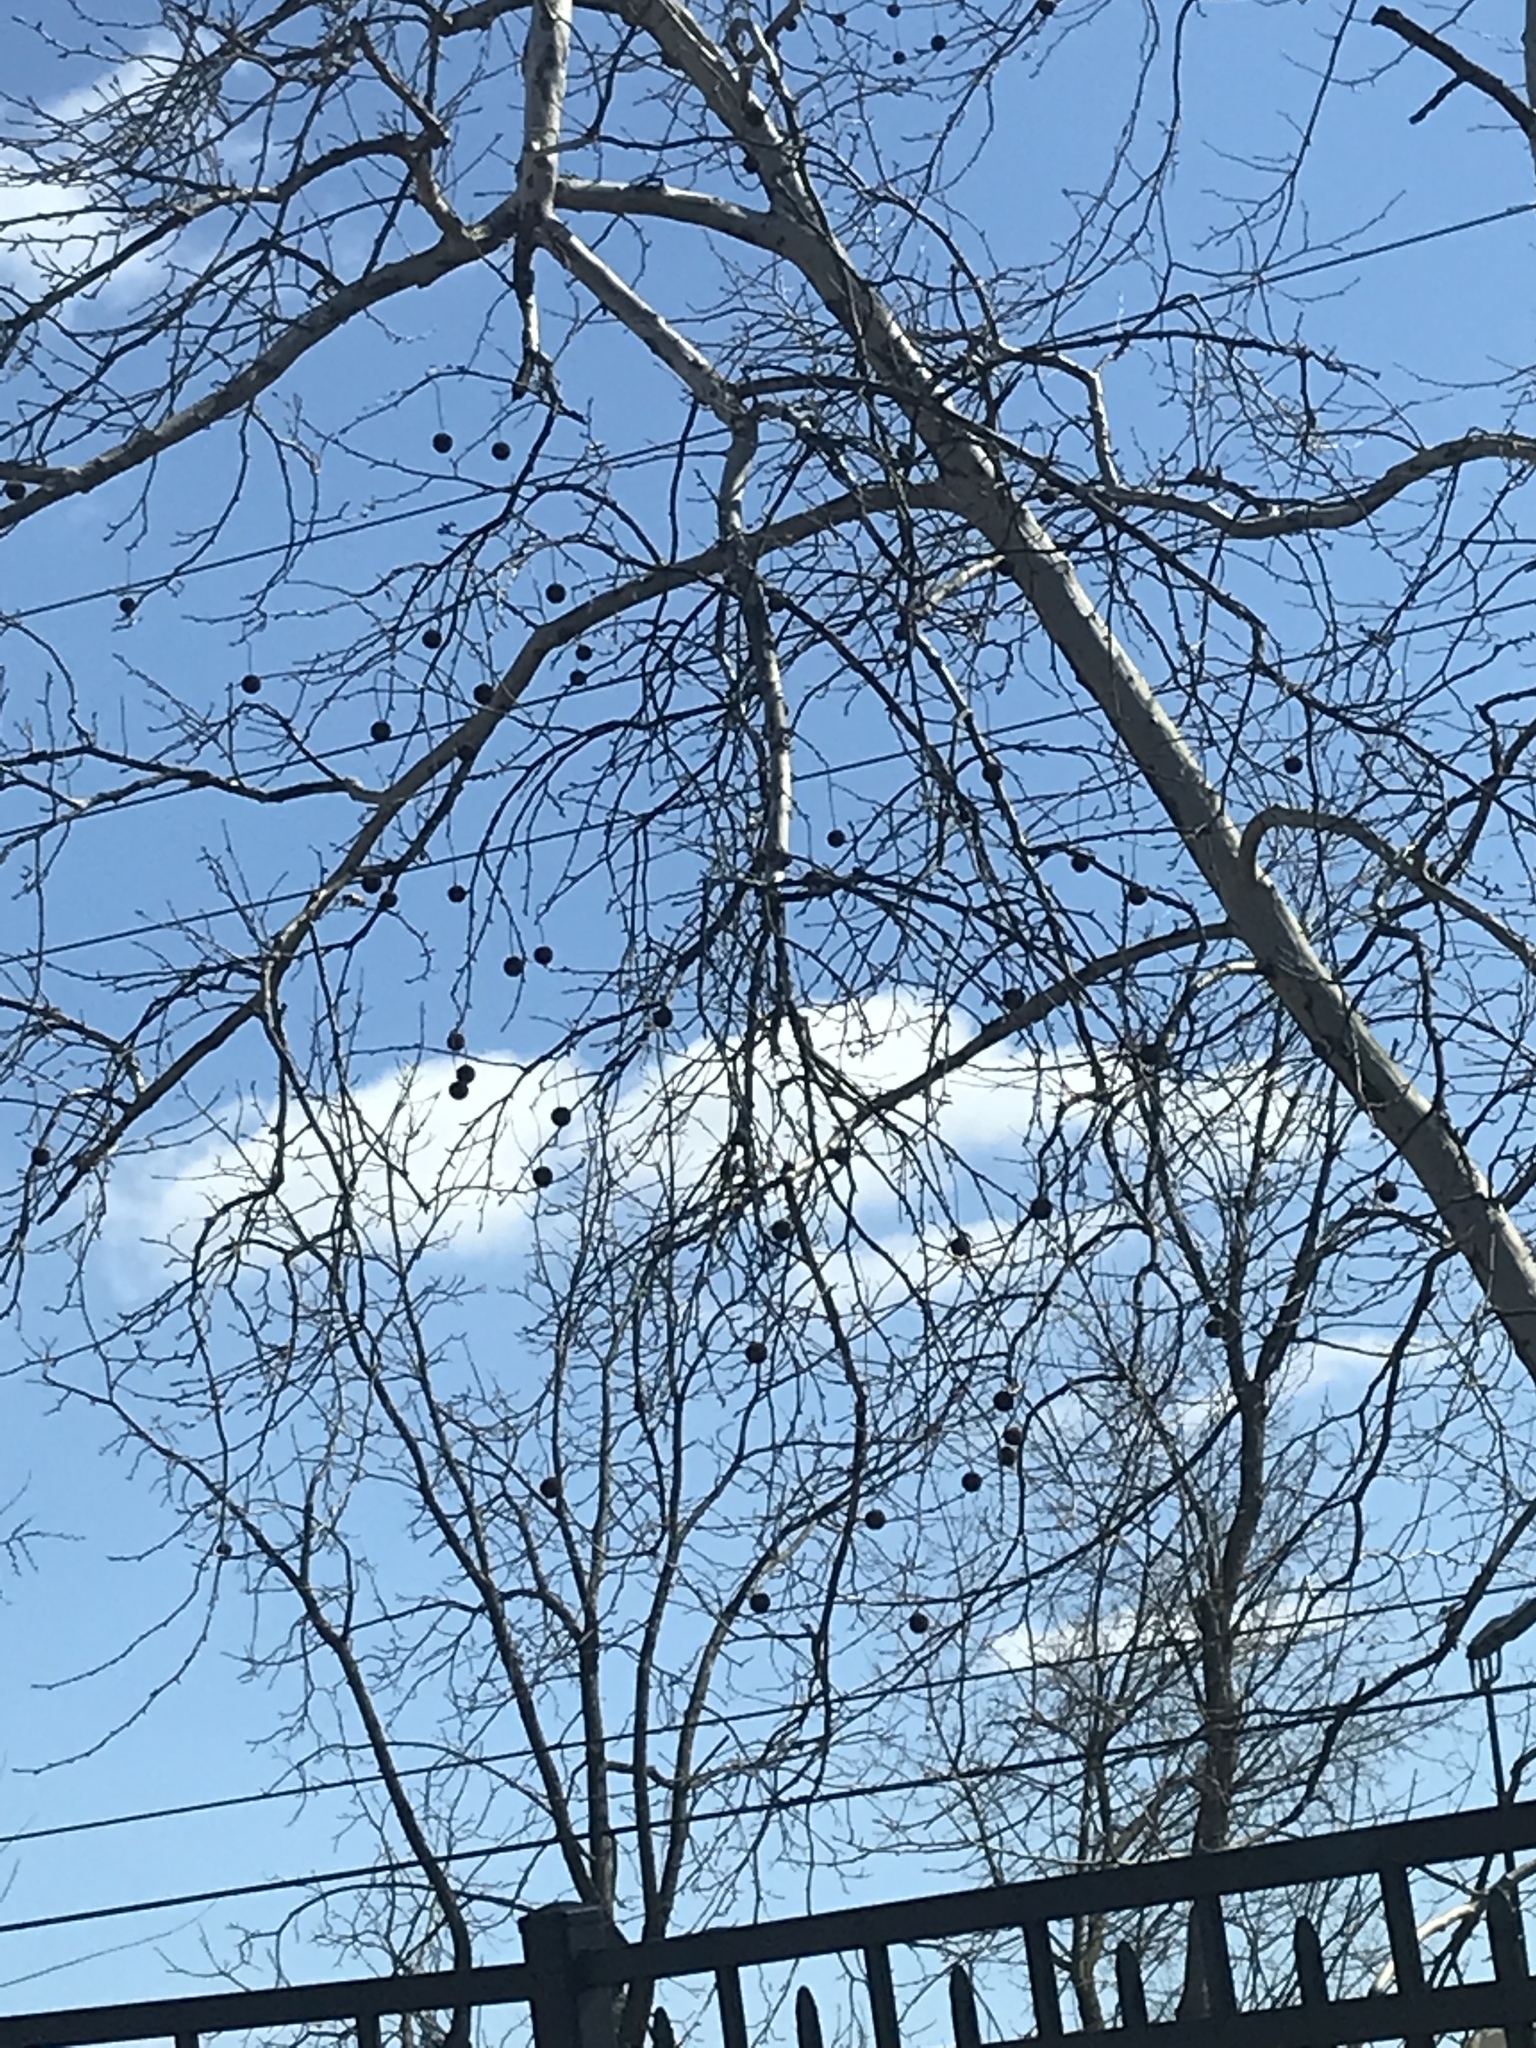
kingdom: Plantae
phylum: Tracheophyta
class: Magnoliopsida
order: Proteales
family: Platanaceae
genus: Platanus
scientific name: Platanus occidentalis
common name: American sycamore
